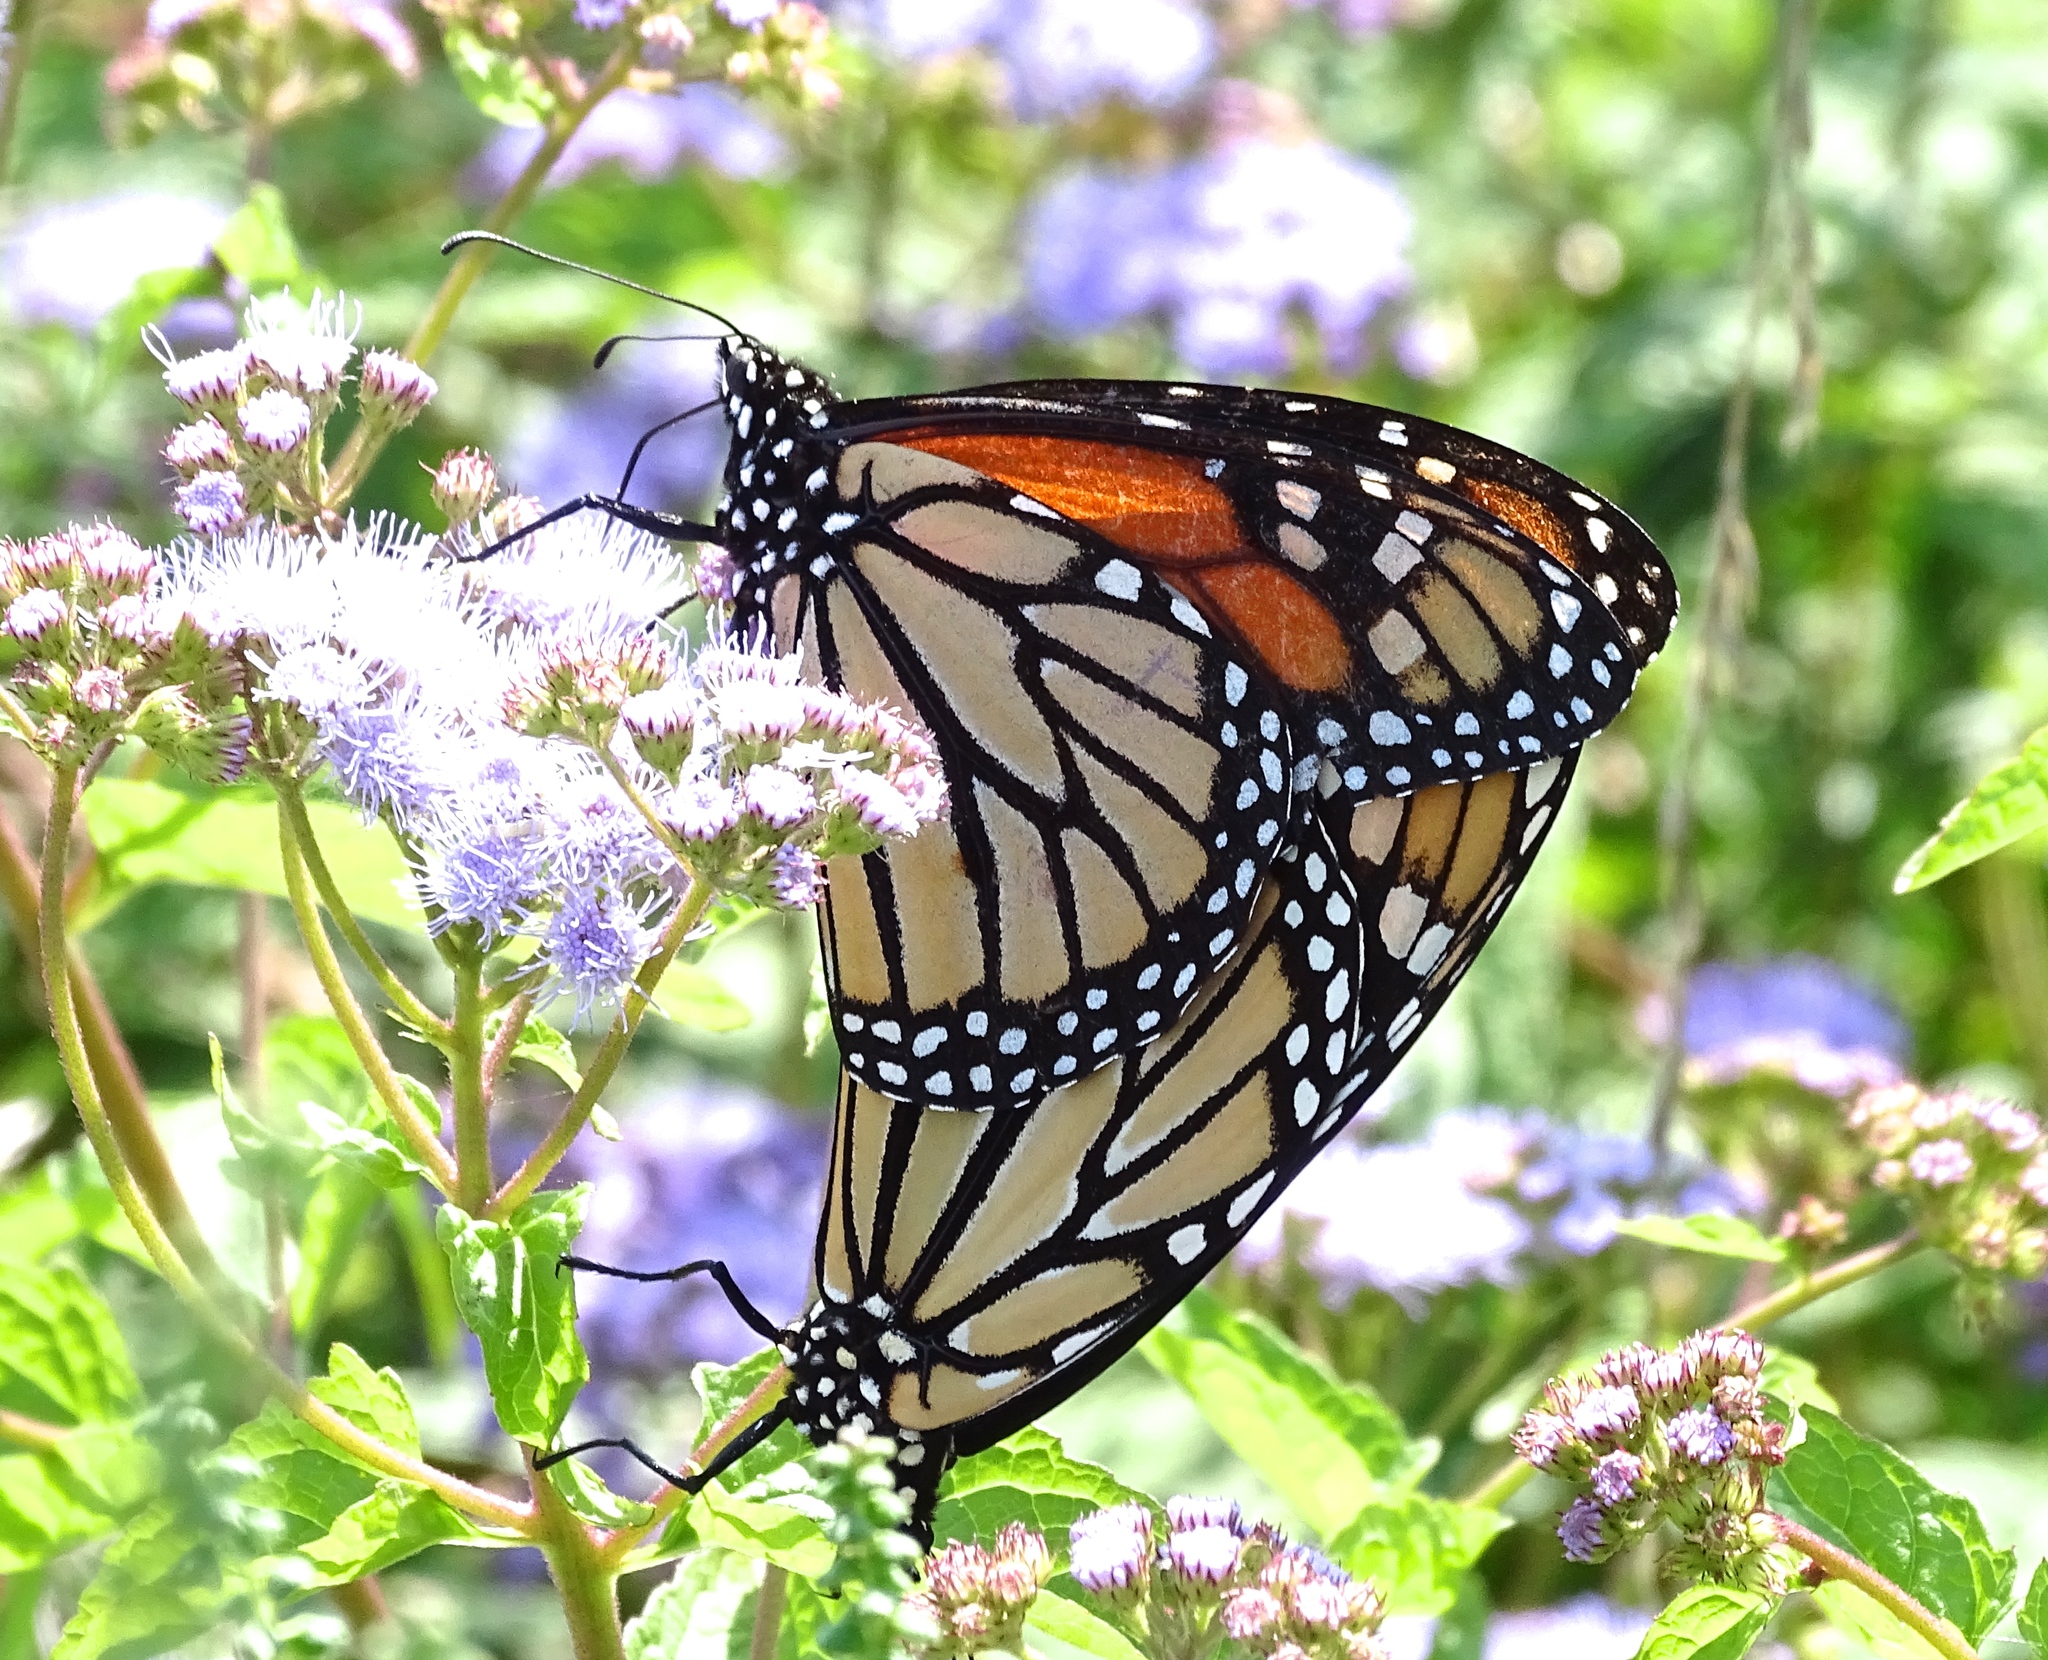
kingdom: Animalia
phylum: Arthropoda
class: Insecta
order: Lepidoptera
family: Nymphalidae
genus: Danaus
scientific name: Danaus plexippus
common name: Monarch
